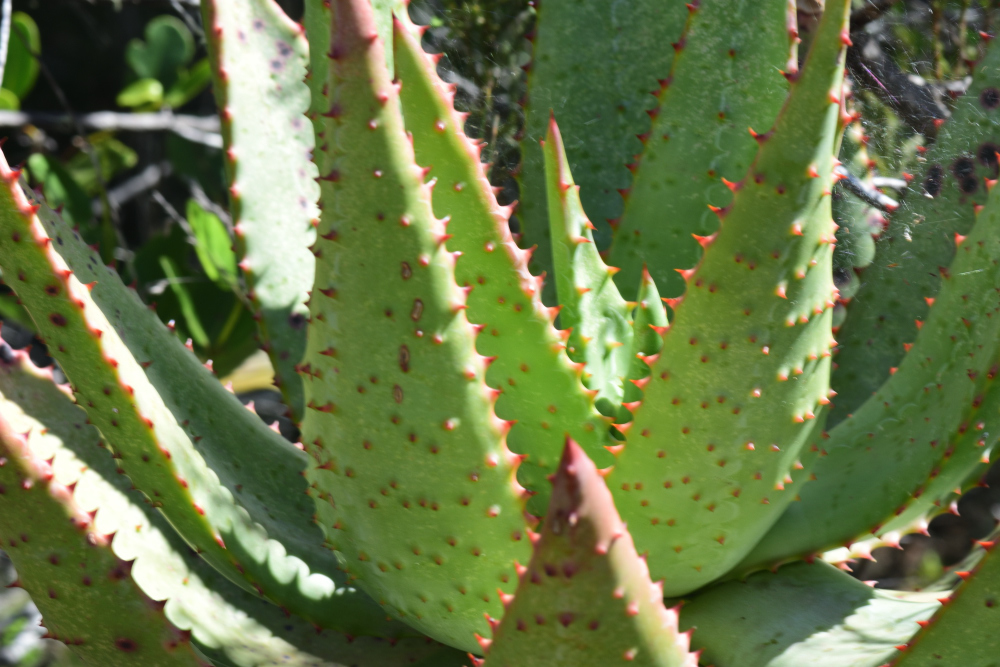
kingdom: Plantae
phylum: Tracheophyta
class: Liliopsida
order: Asparagales
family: Asphodelaceae
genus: Aloe
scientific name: Aloe ferox
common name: Bitter aloe
